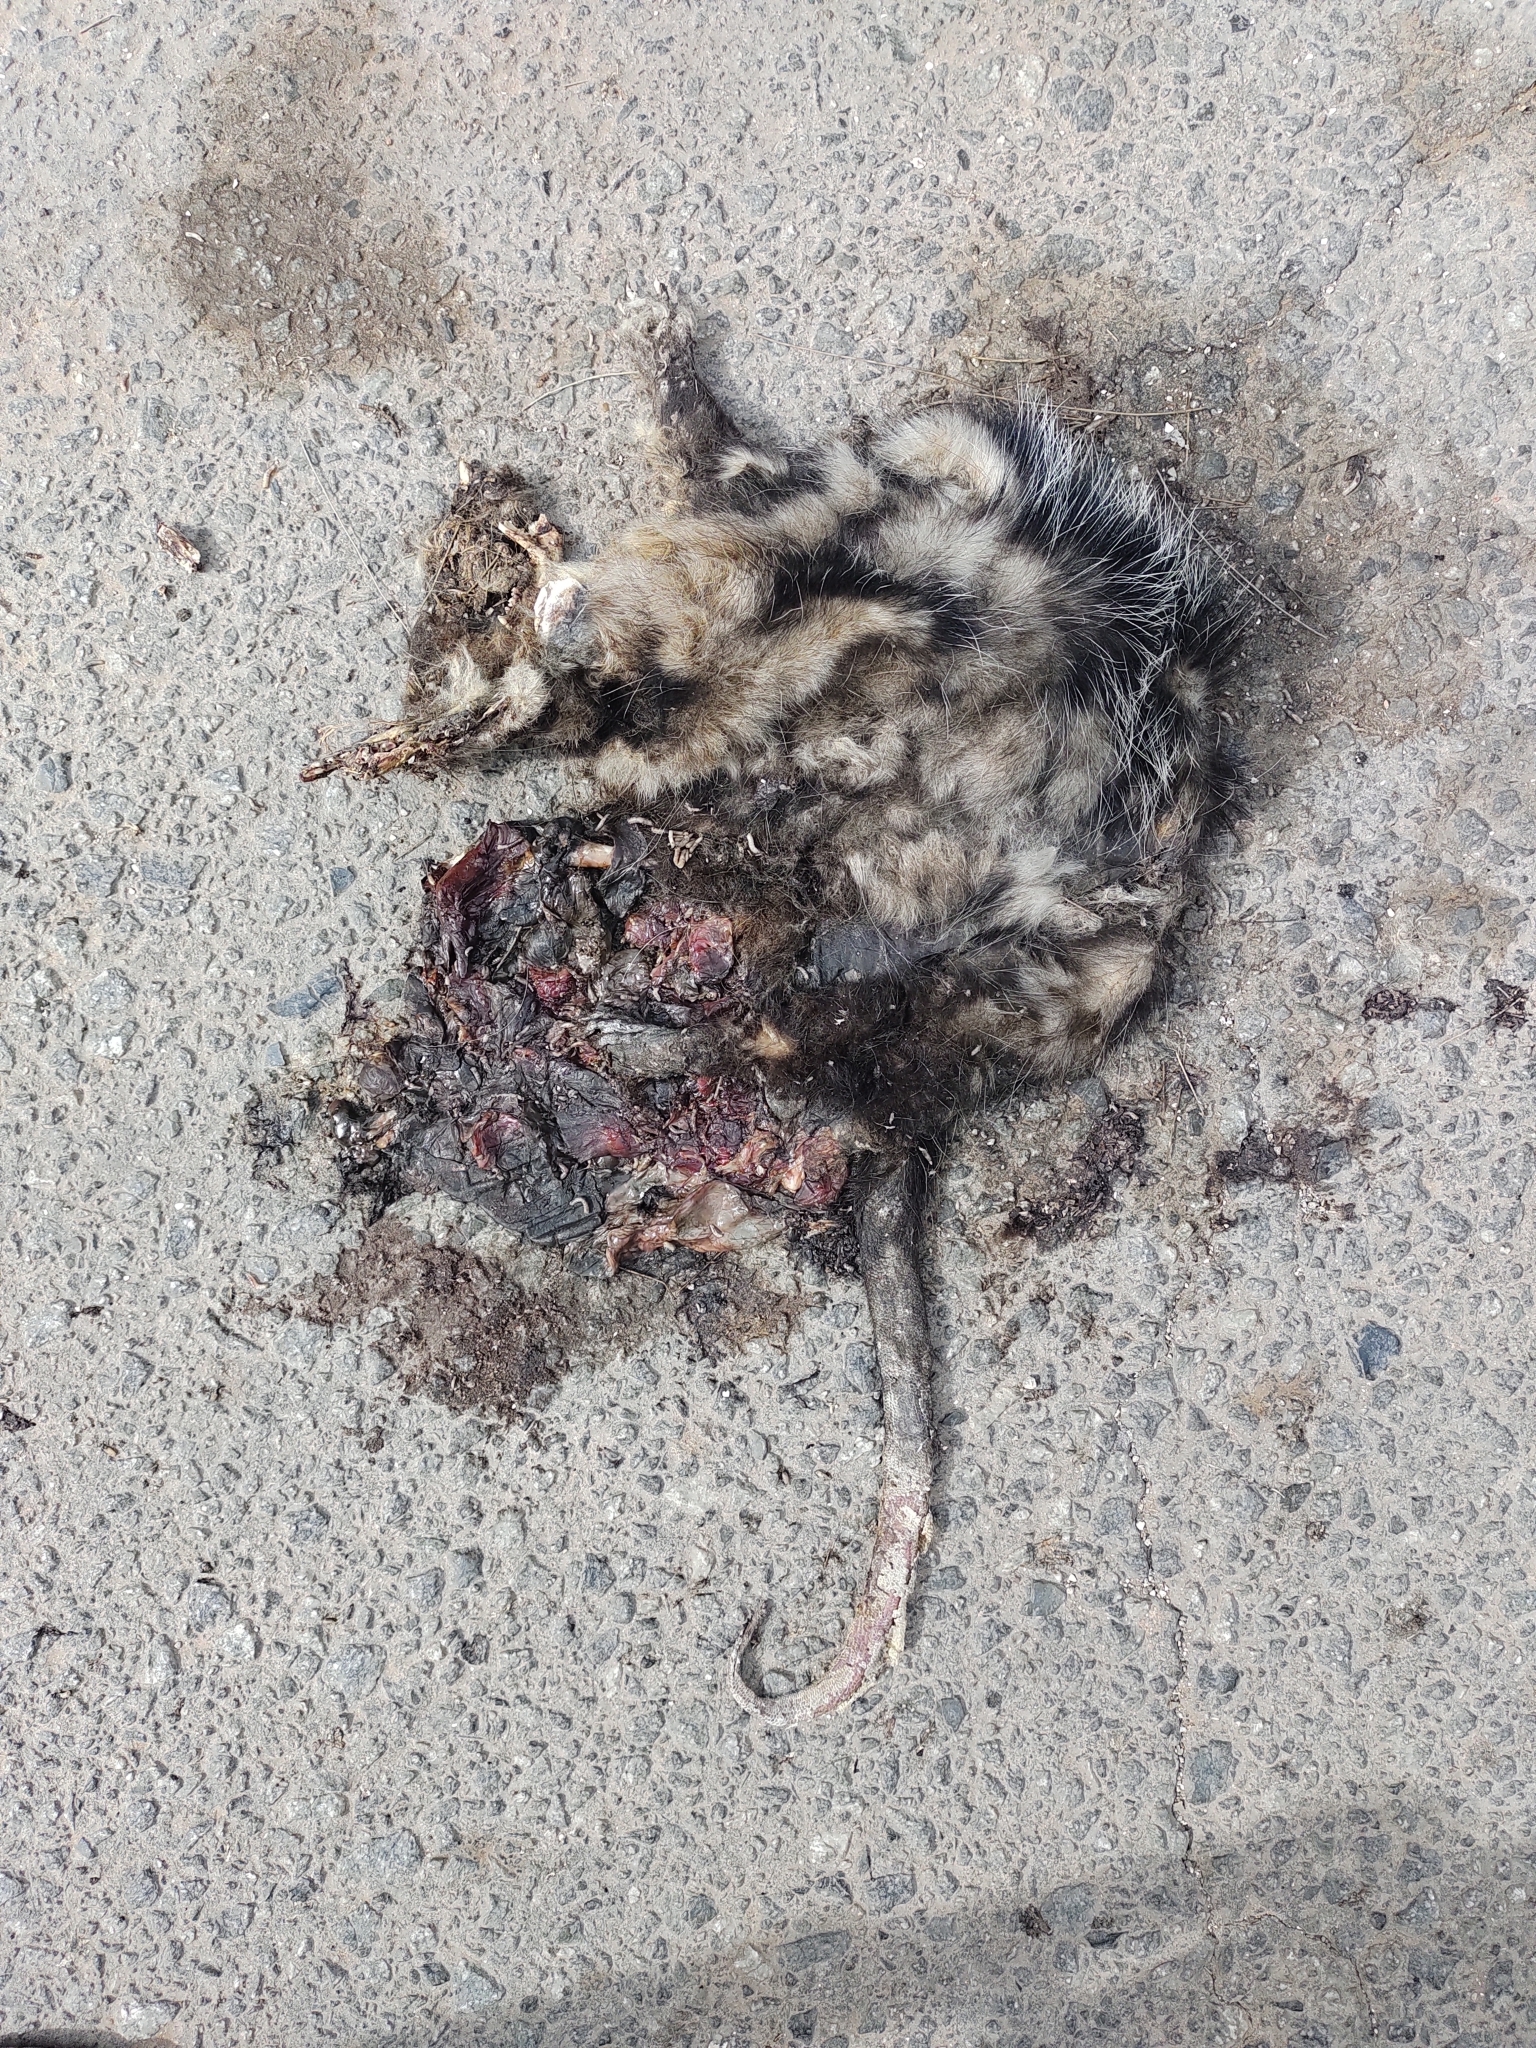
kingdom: Animalia
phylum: Chordata
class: Mammalia
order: Didelphimorphia
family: Didelphidae
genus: Didelphis
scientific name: Didelphis albiventris
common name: White-eared opossum
